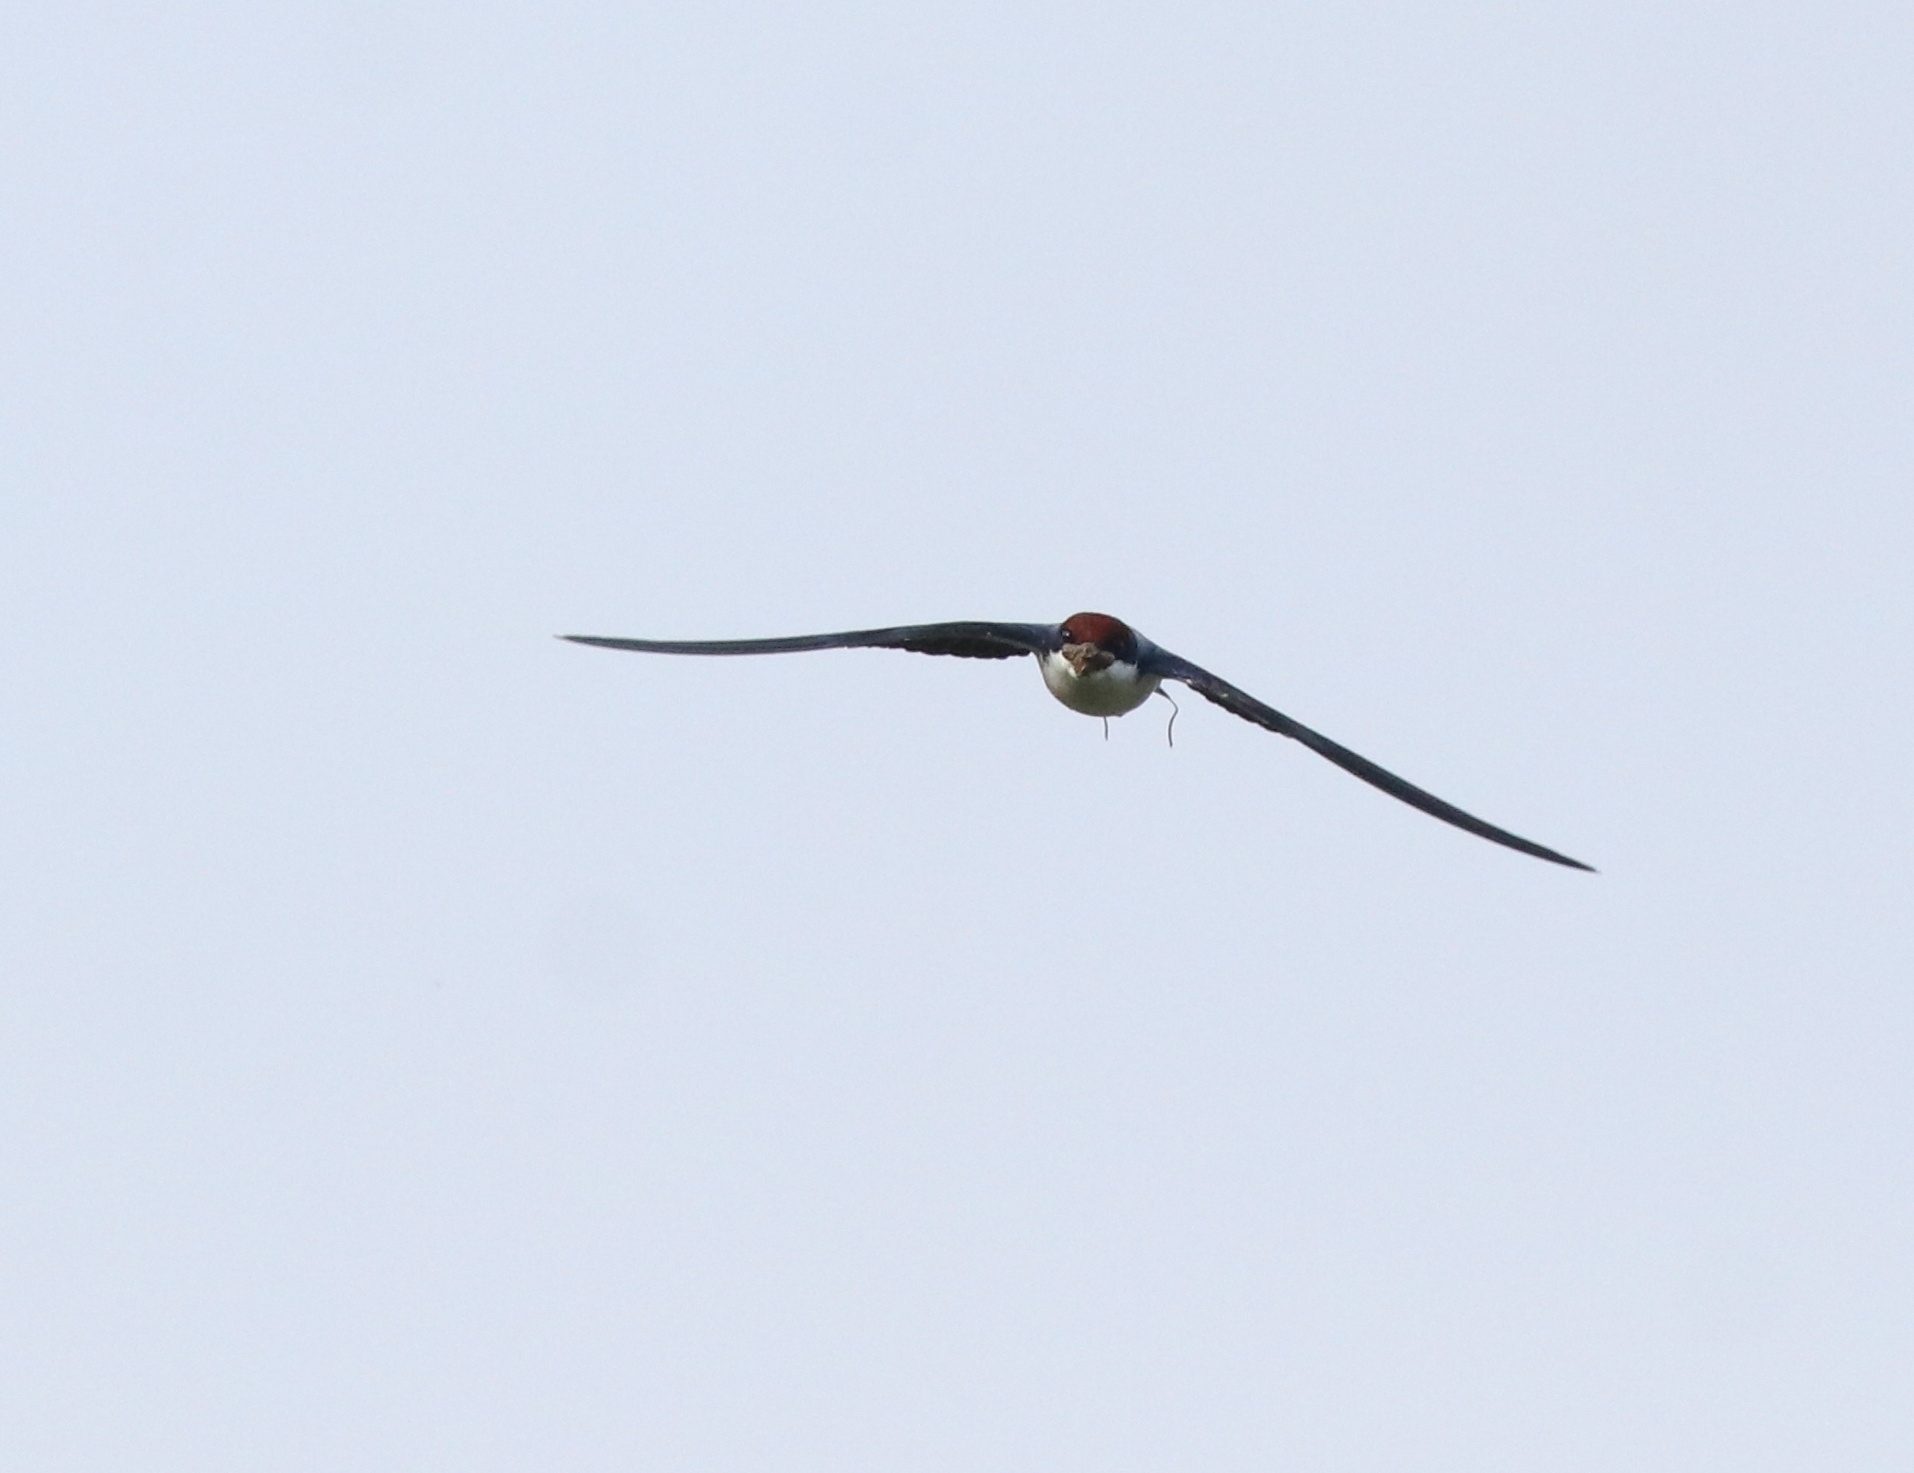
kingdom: Animalia
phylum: Chordata
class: Aves
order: Passeriformes
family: Hirundinidae
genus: Hirundo
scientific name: Hirundo smithii
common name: Wire-tailed swallow
